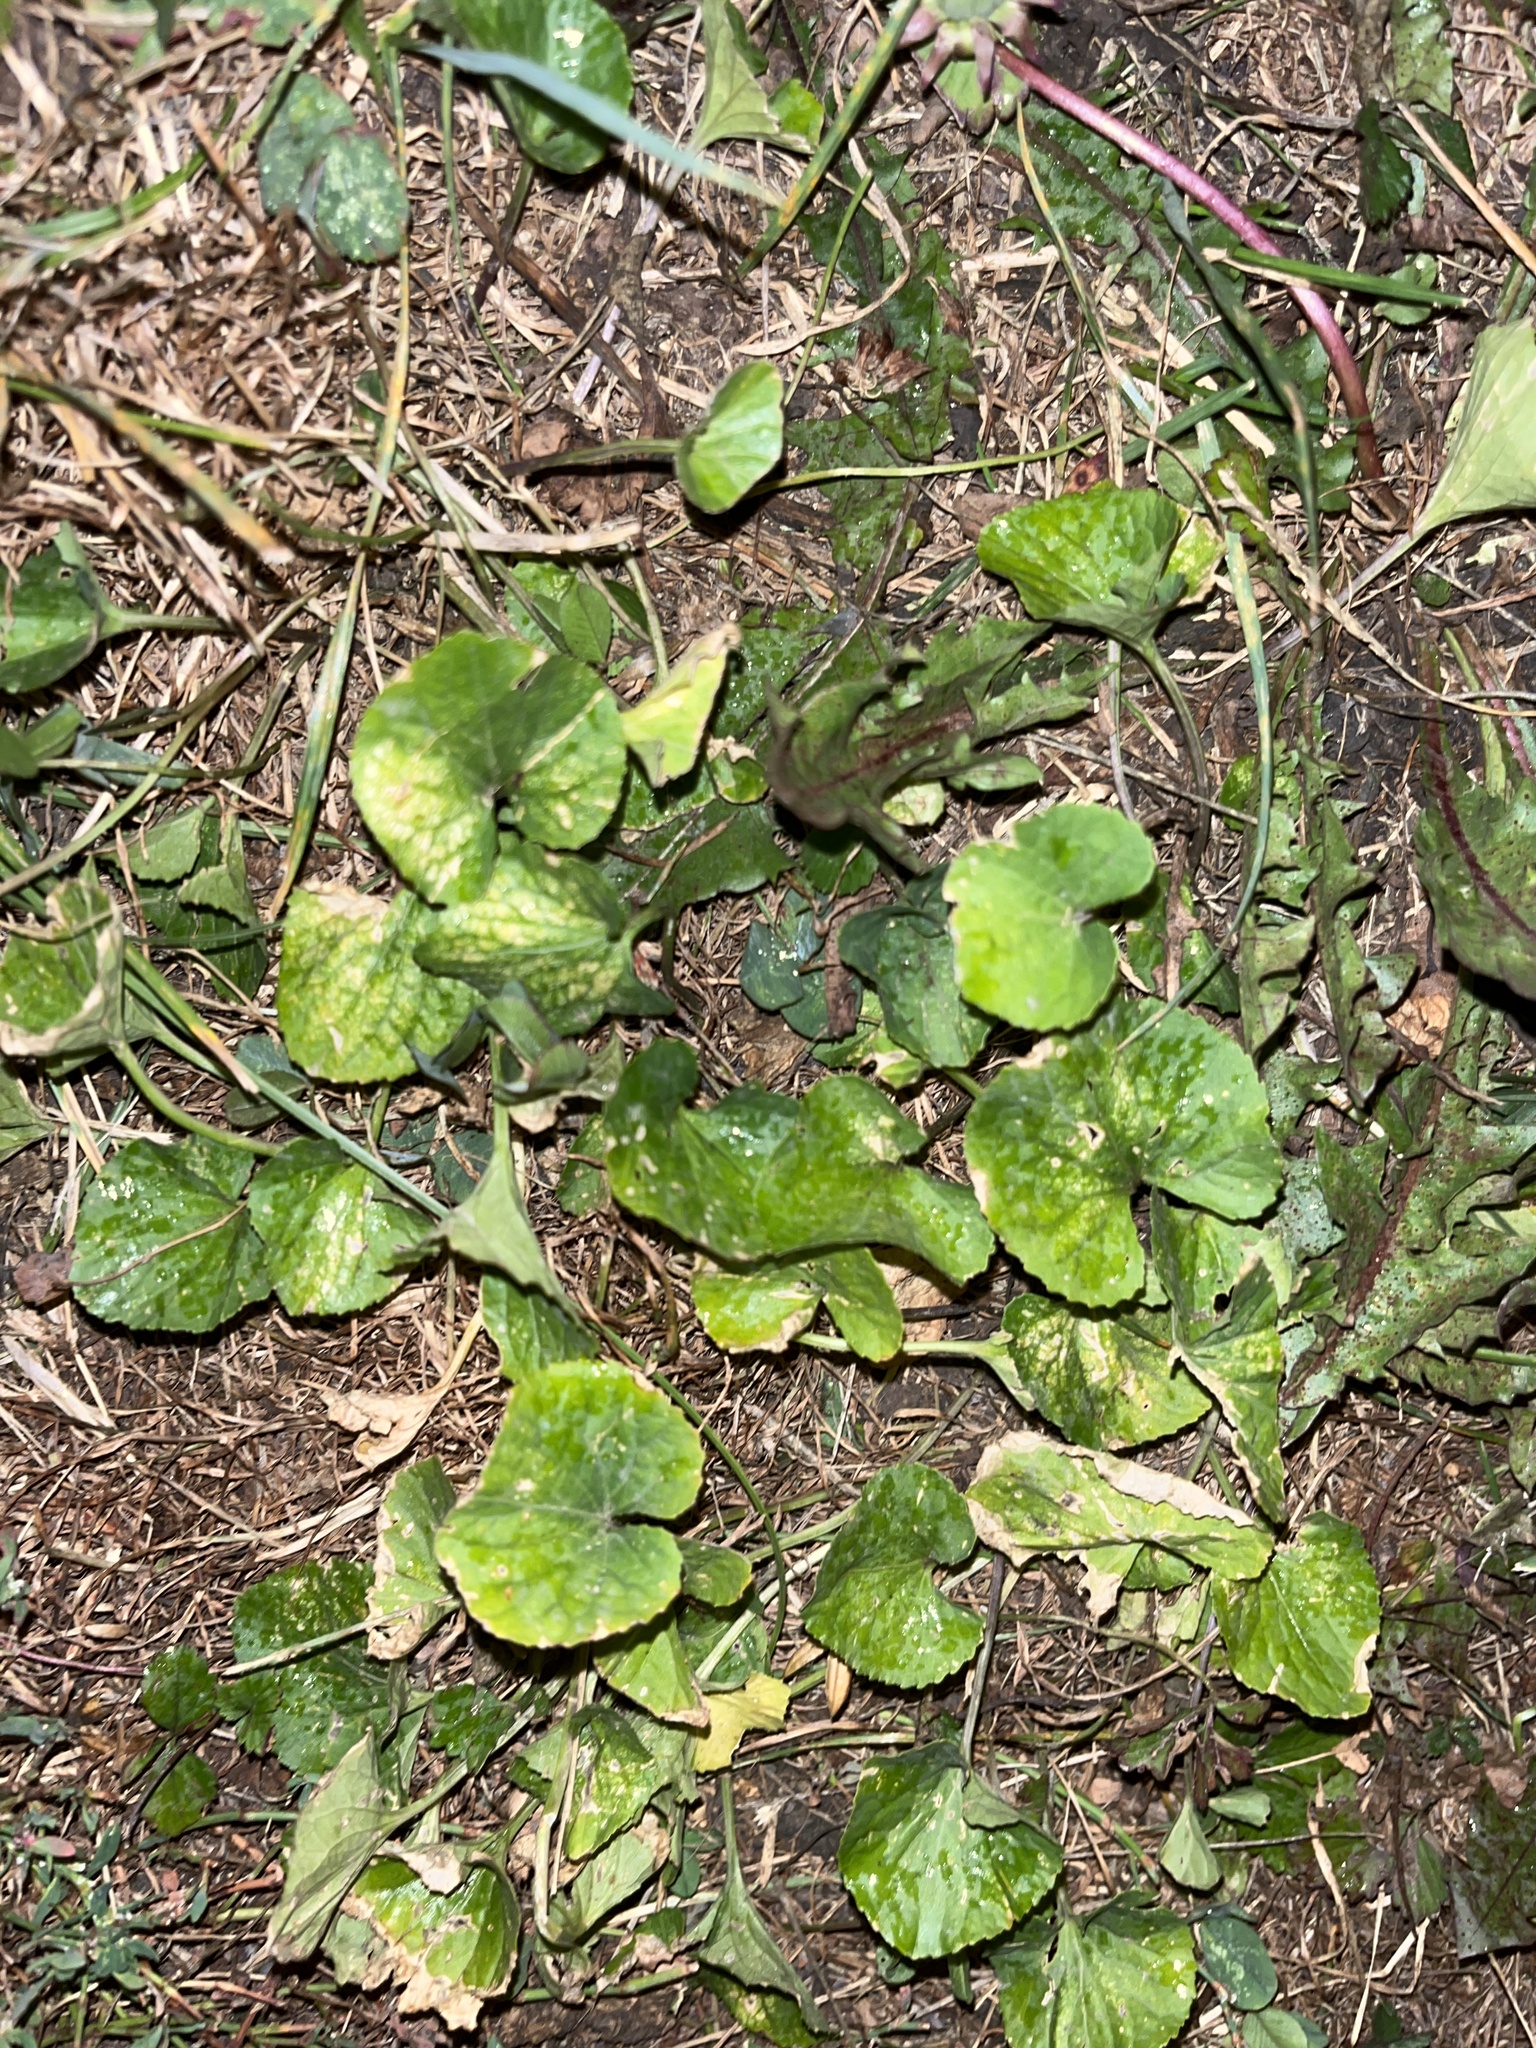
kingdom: Plantae
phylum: Tracheophyta
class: Magnoliopsida
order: Malpighiales
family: Violaceae
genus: Viola
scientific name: Viola sororia
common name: Dooryard violet
